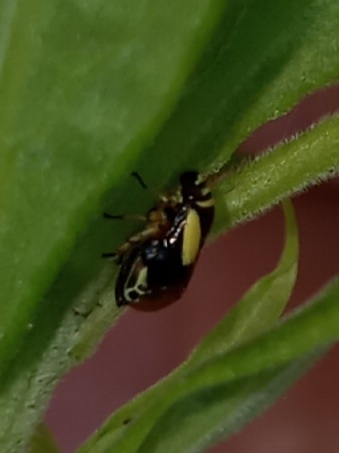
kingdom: Animalia
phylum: Arthropoda
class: Insecta
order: Hemiptera
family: Clastopteridae
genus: Clastoptera
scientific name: Clastoptera proteus
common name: Dogwood spittlebug
